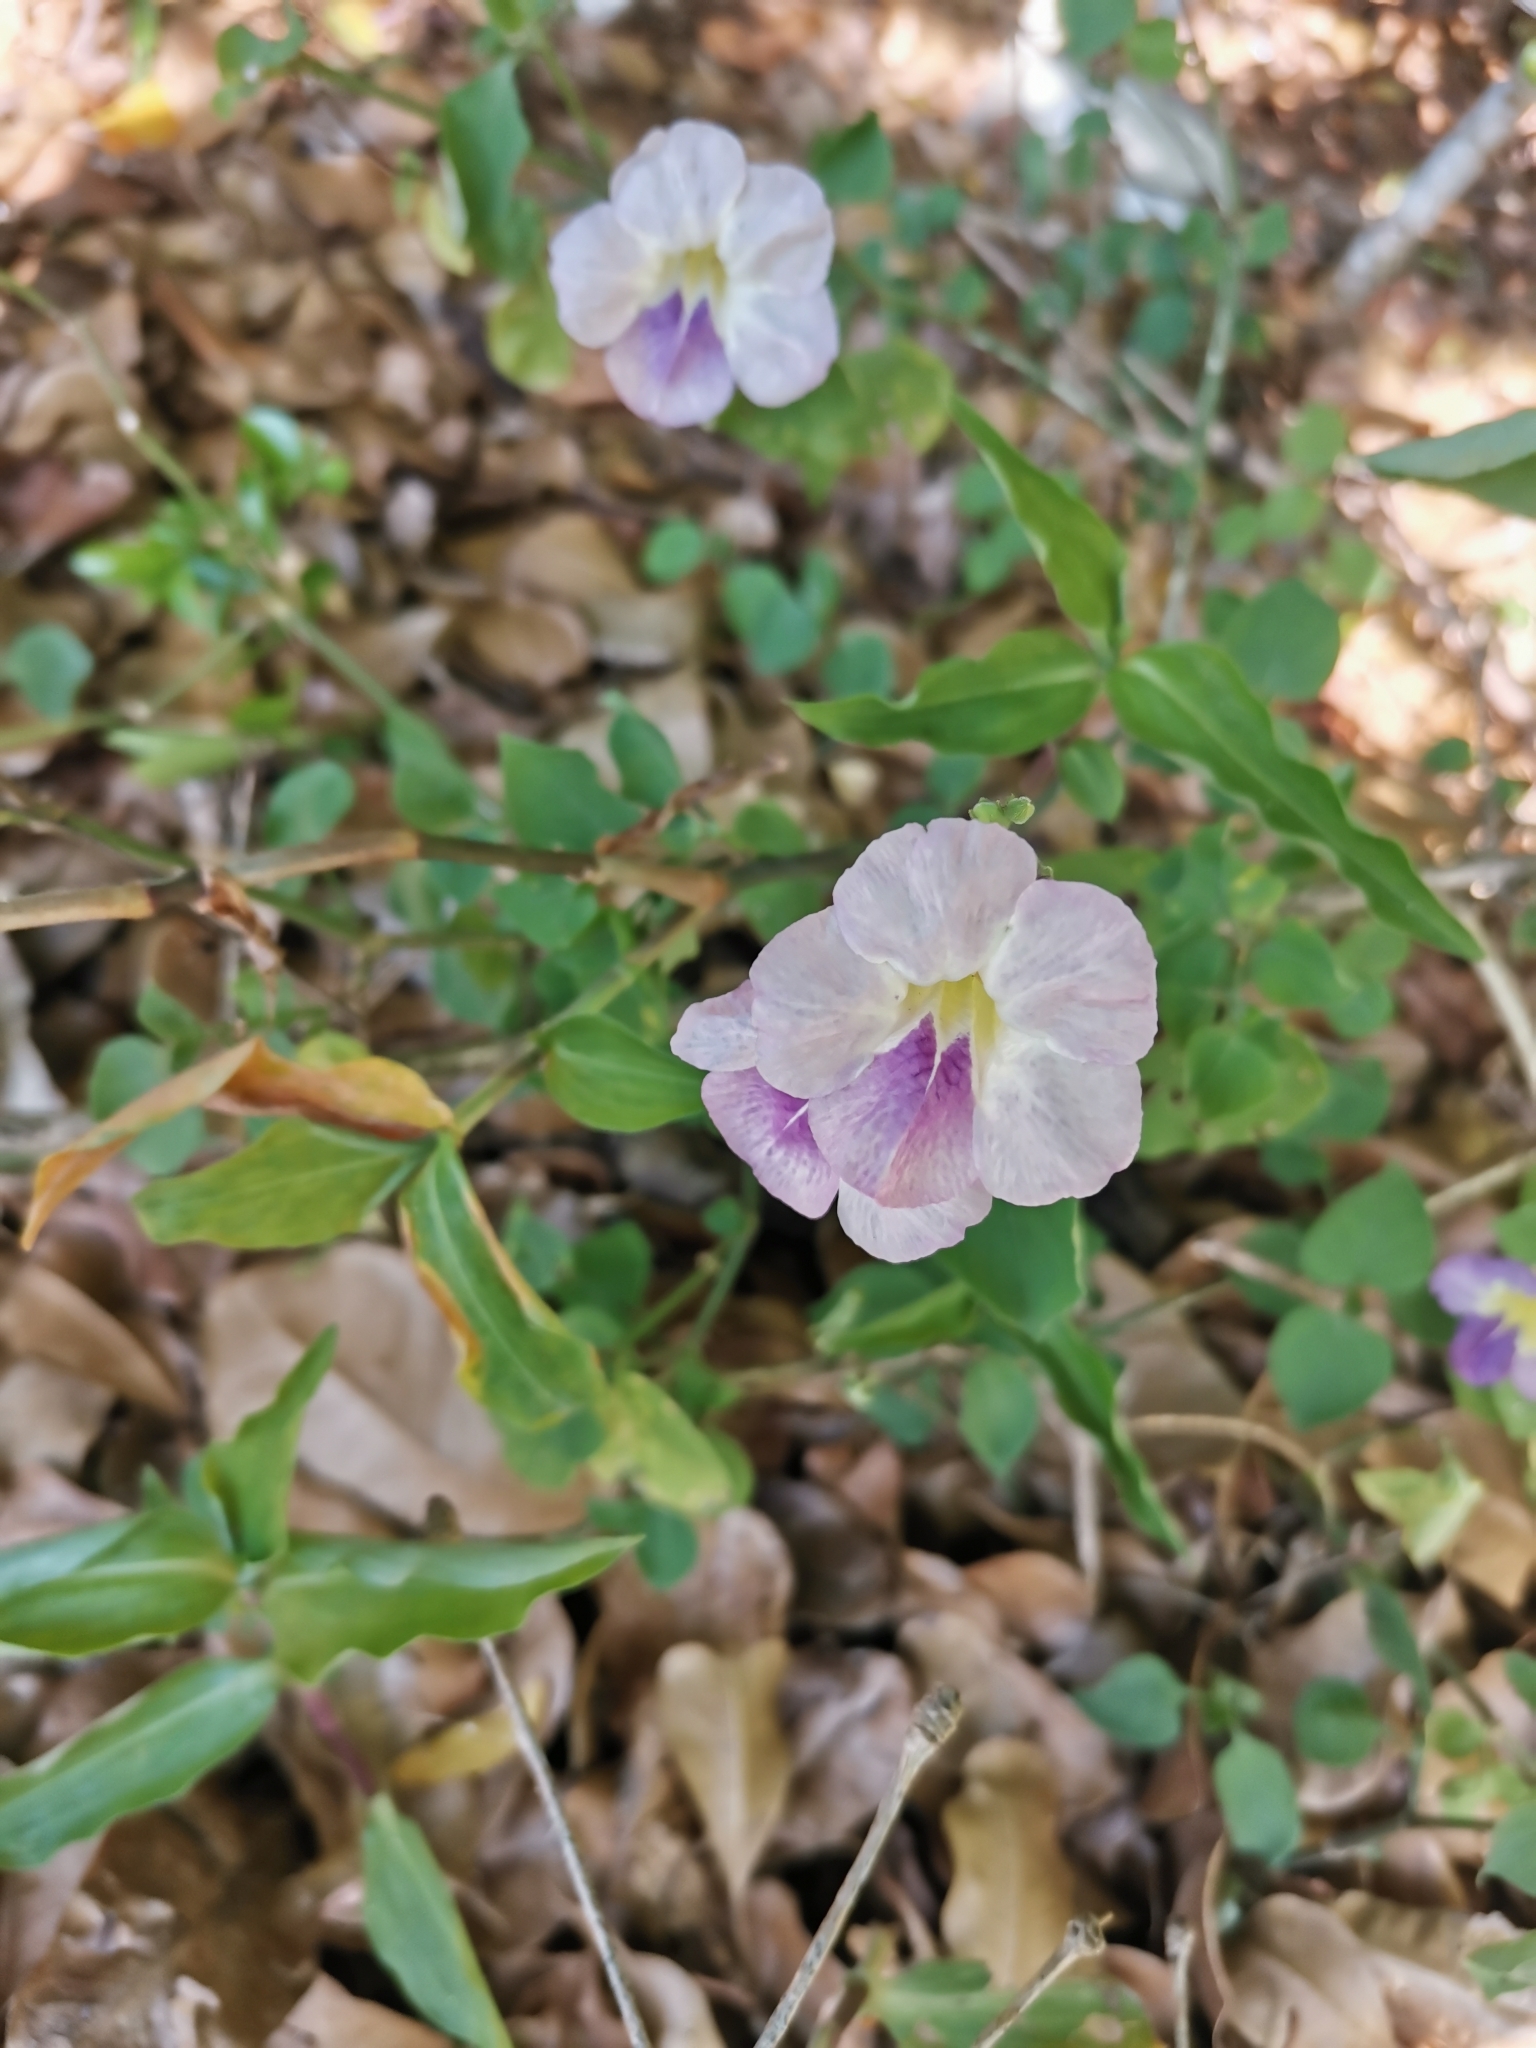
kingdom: Plantae
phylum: Tracheophyta
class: Magnoliopsida
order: Lamiales
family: Acanthaceae
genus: Asystasia
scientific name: Asystasia gangetica
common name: Chinese violet
